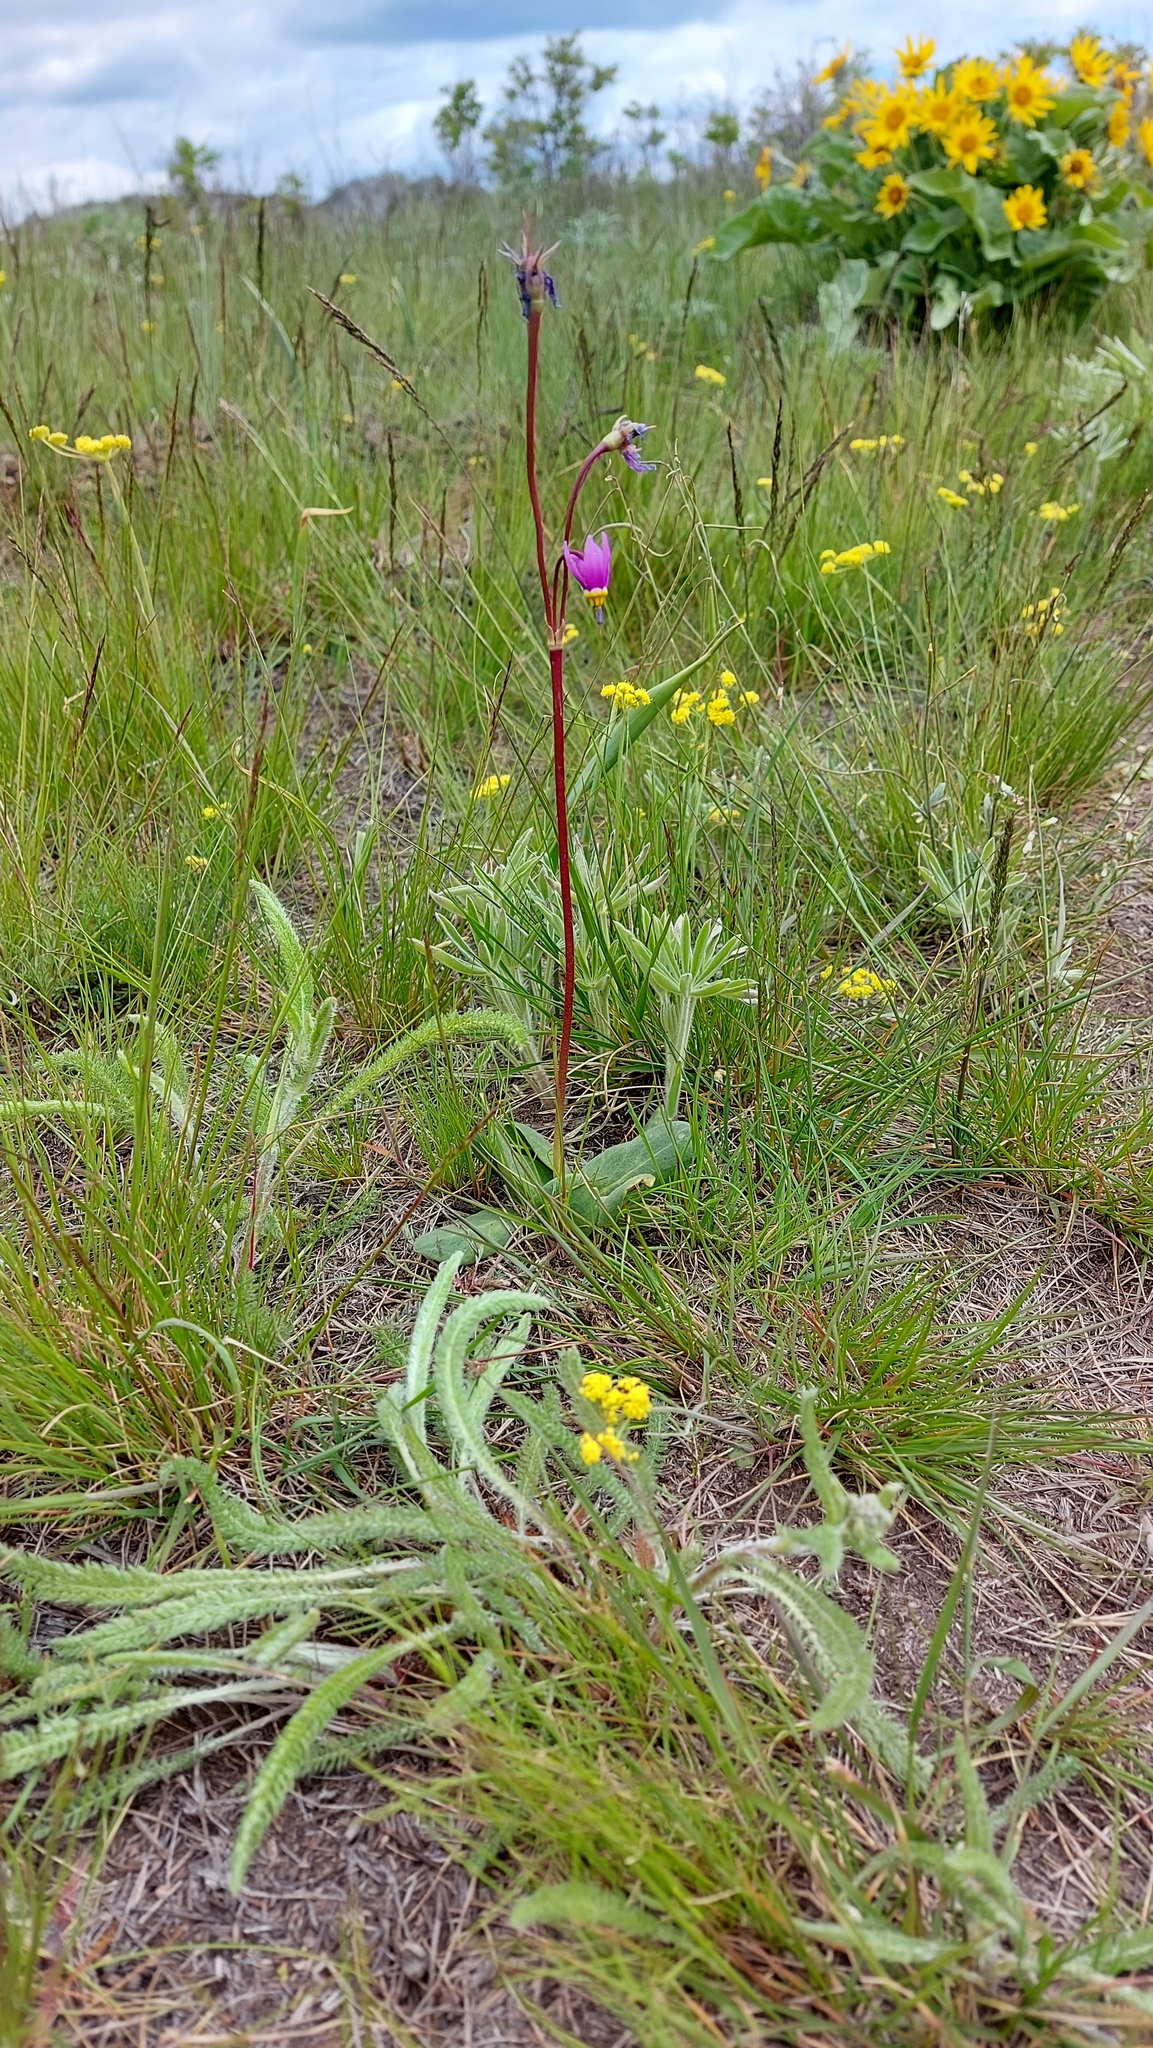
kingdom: Plantae
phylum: Tracheophyta
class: Magnoliopsida
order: Ericales
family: Primulaceae
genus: Dodecatheon
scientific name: Dodecatheon conjugens
